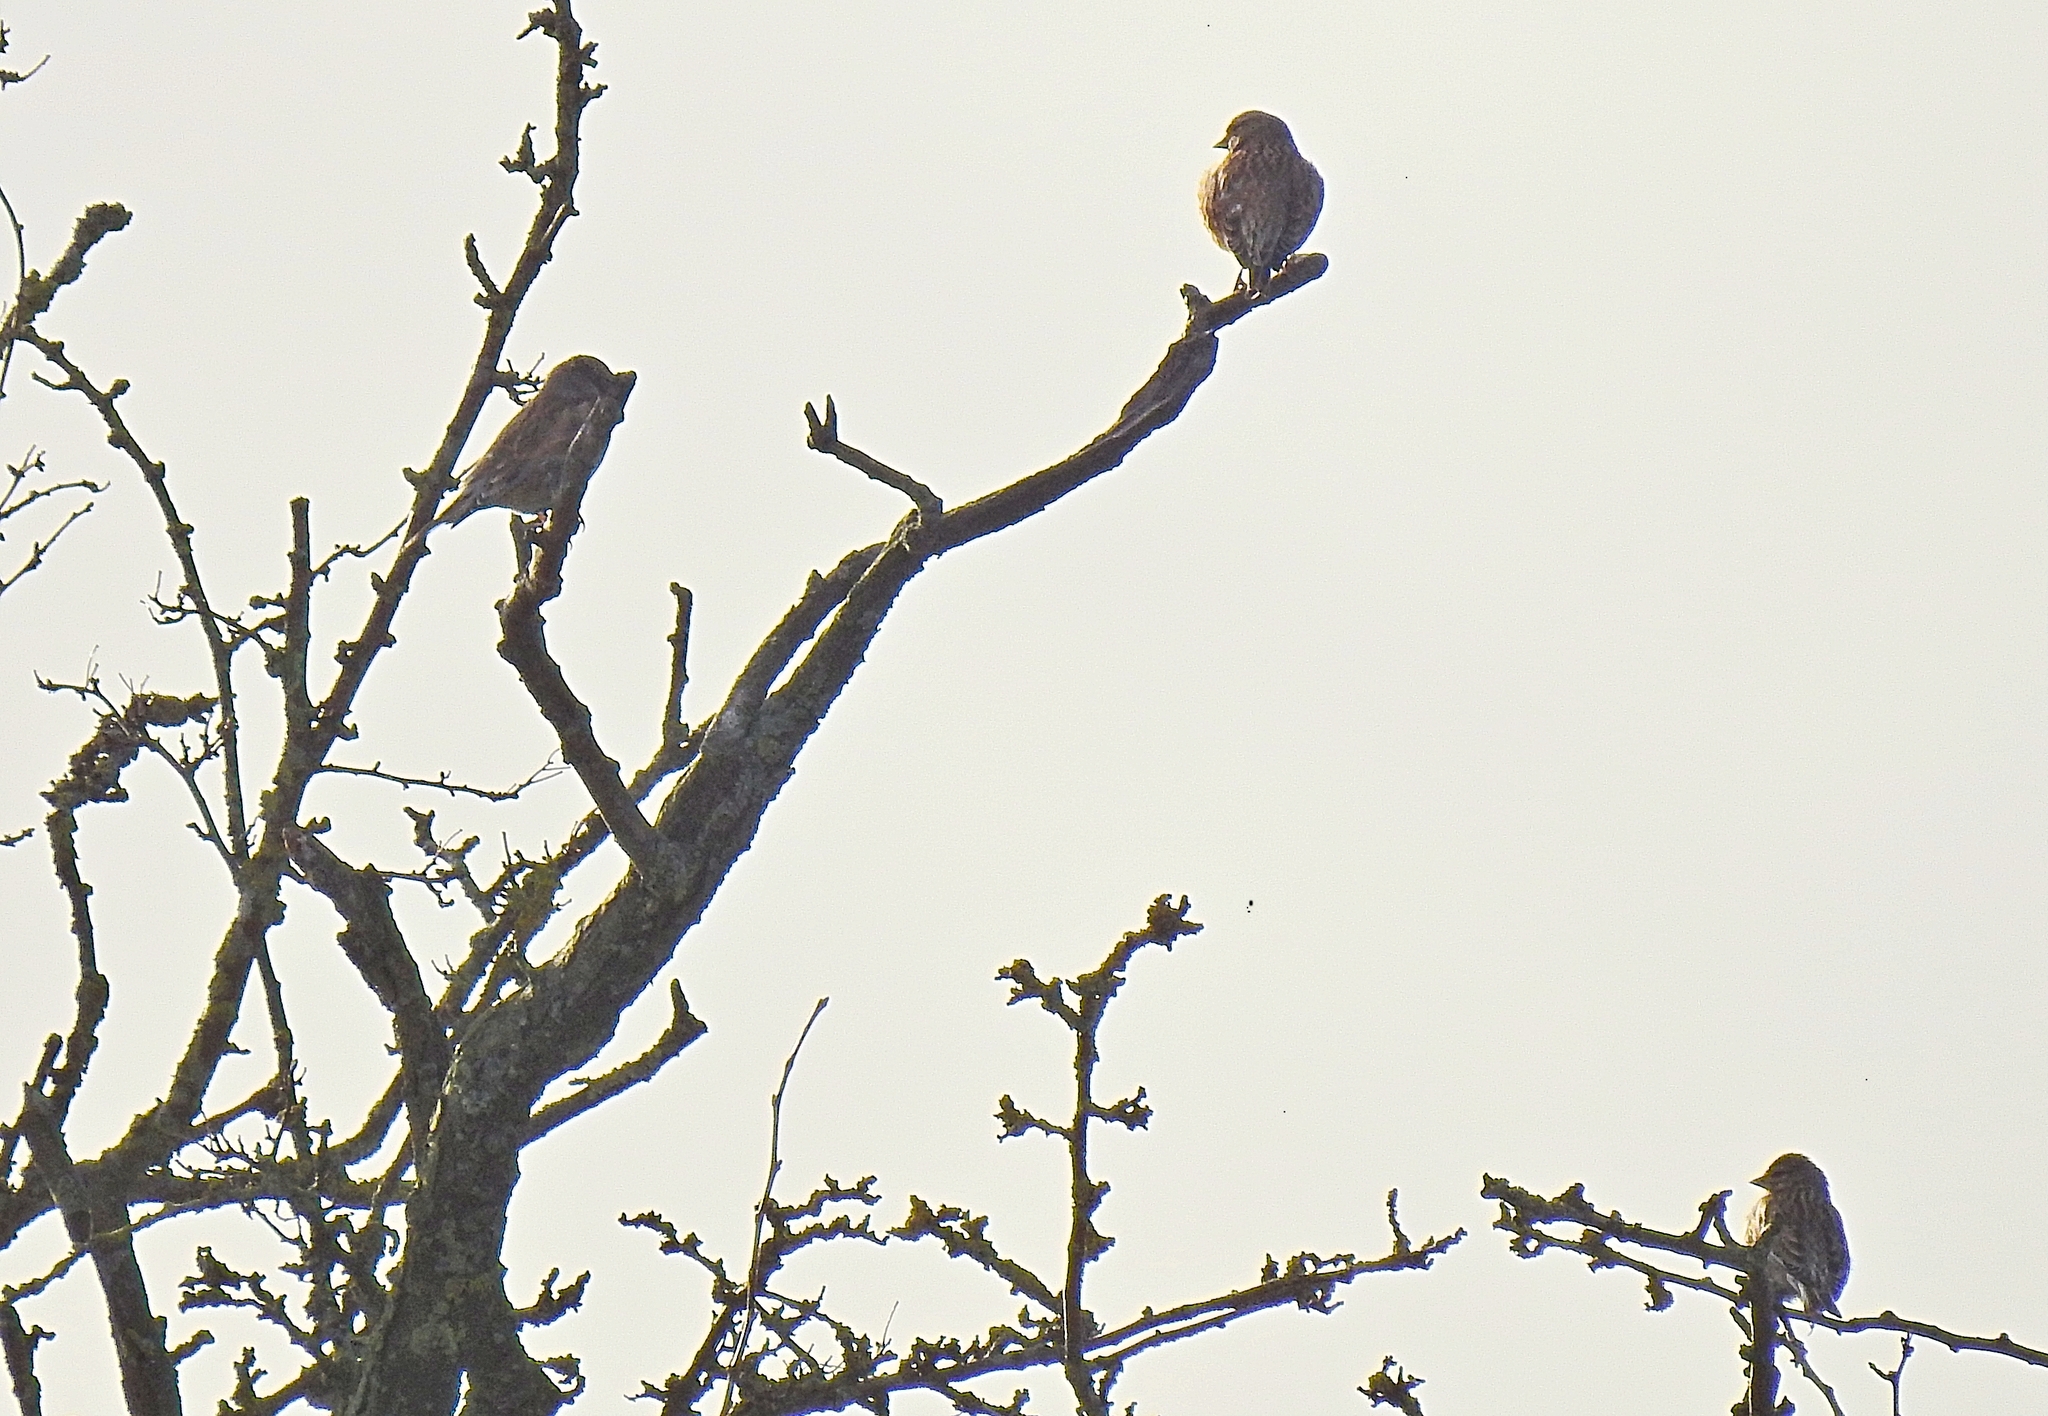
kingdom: Animalia
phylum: Chordata
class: Aves
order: Passeriformes
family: Fringillidae
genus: Linaria
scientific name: Linaria cannabina
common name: Common linnet
